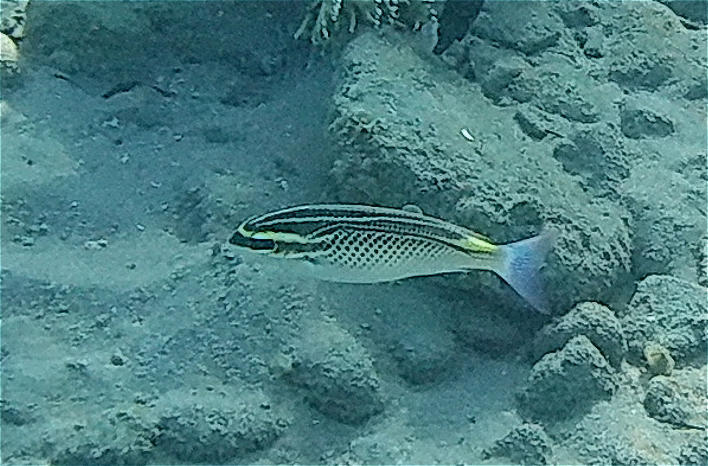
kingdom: Animalia
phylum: Chordata
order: Perciformes
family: Nemipteridae
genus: Scolopsis
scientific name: Scolopsis ghanam
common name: Arabian monocle bream
